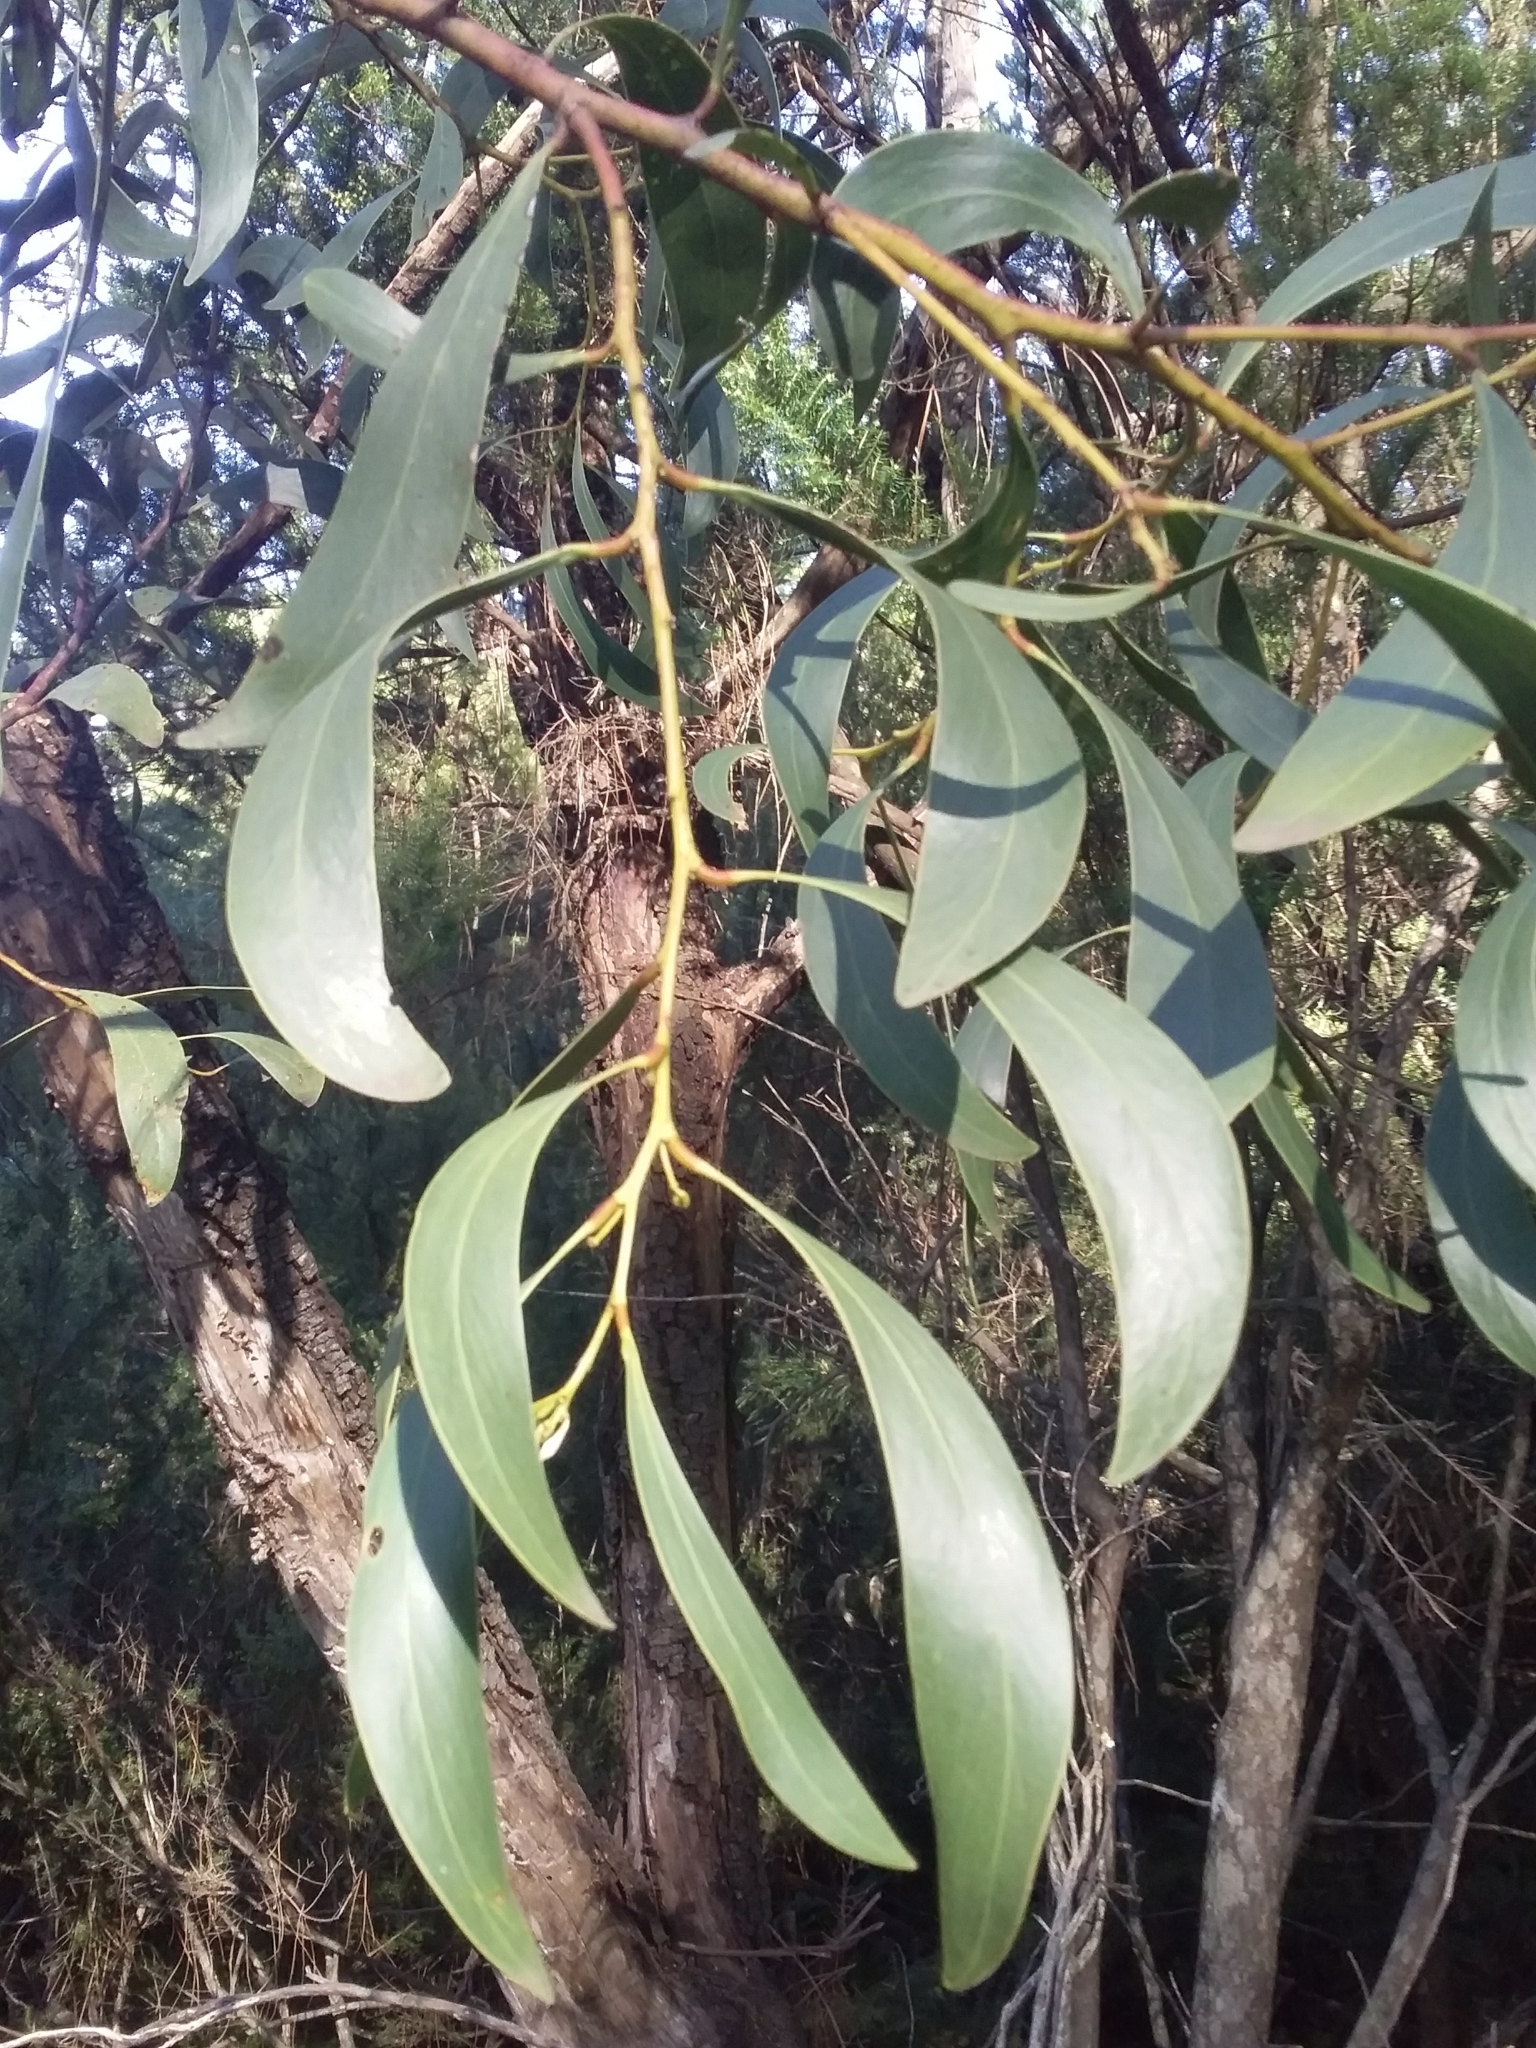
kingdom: Plantae
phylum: Tracheophyta
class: Magnoliopsida
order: Fabales
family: Fabaceae
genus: Acacia
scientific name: Acacia pycnantha
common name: Golden wattle
